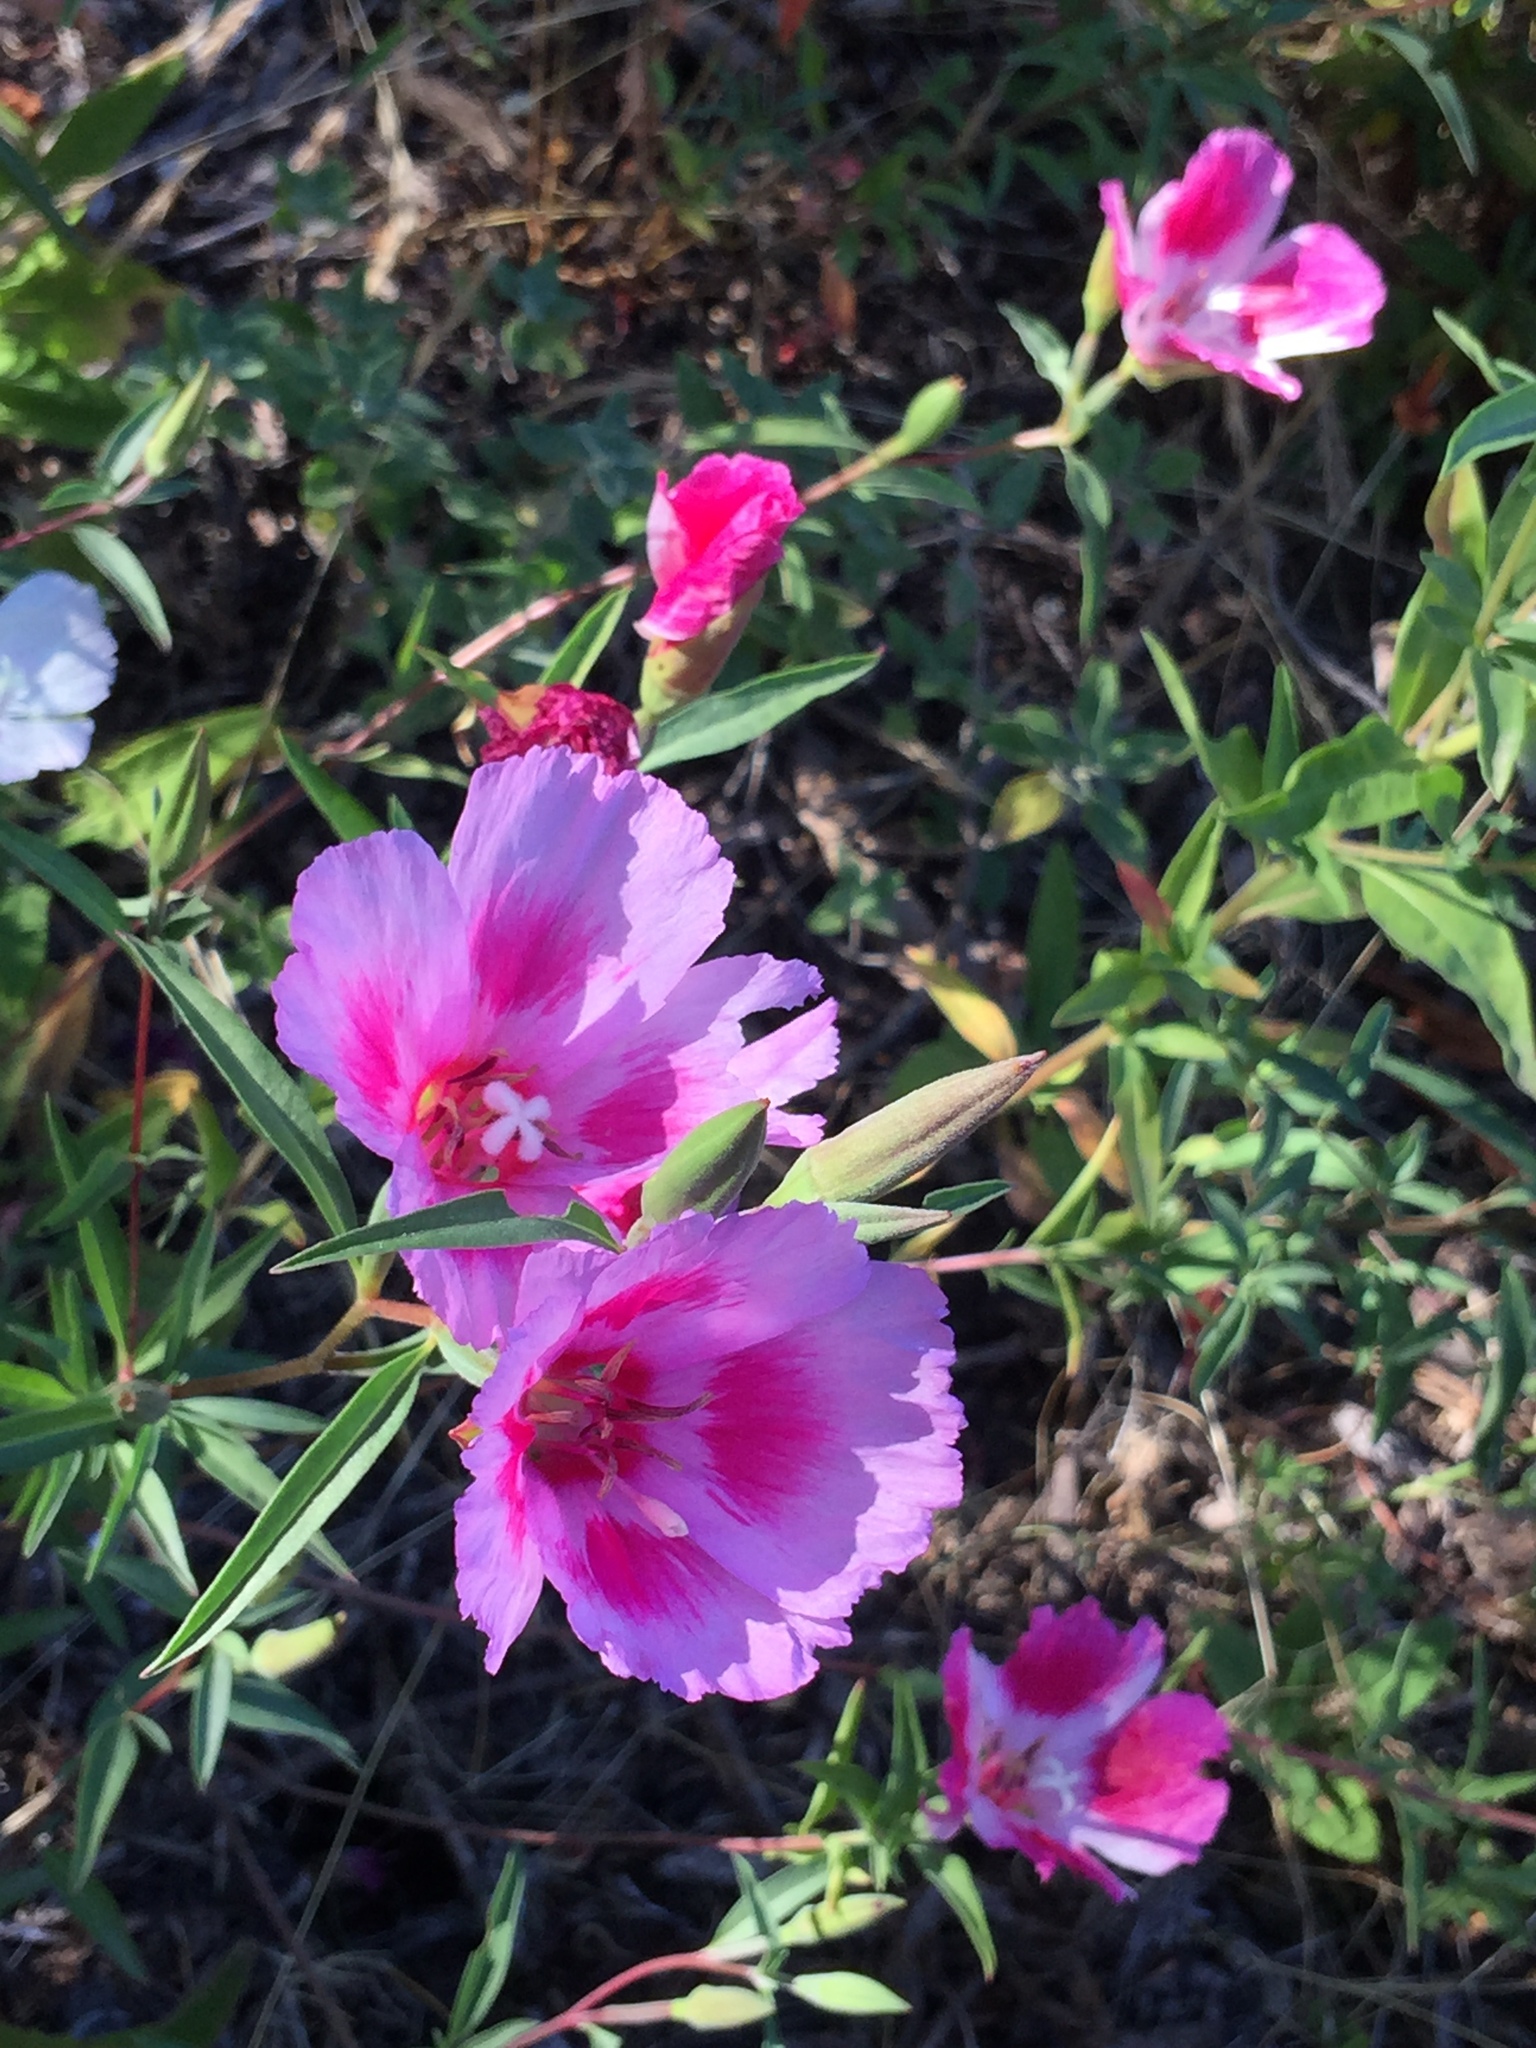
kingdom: Plantae
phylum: Tracheophyta
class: Magnoliopsida
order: Myrtales
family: Onagraceae
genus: Clarkia
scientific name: Clarkia rubicunda
